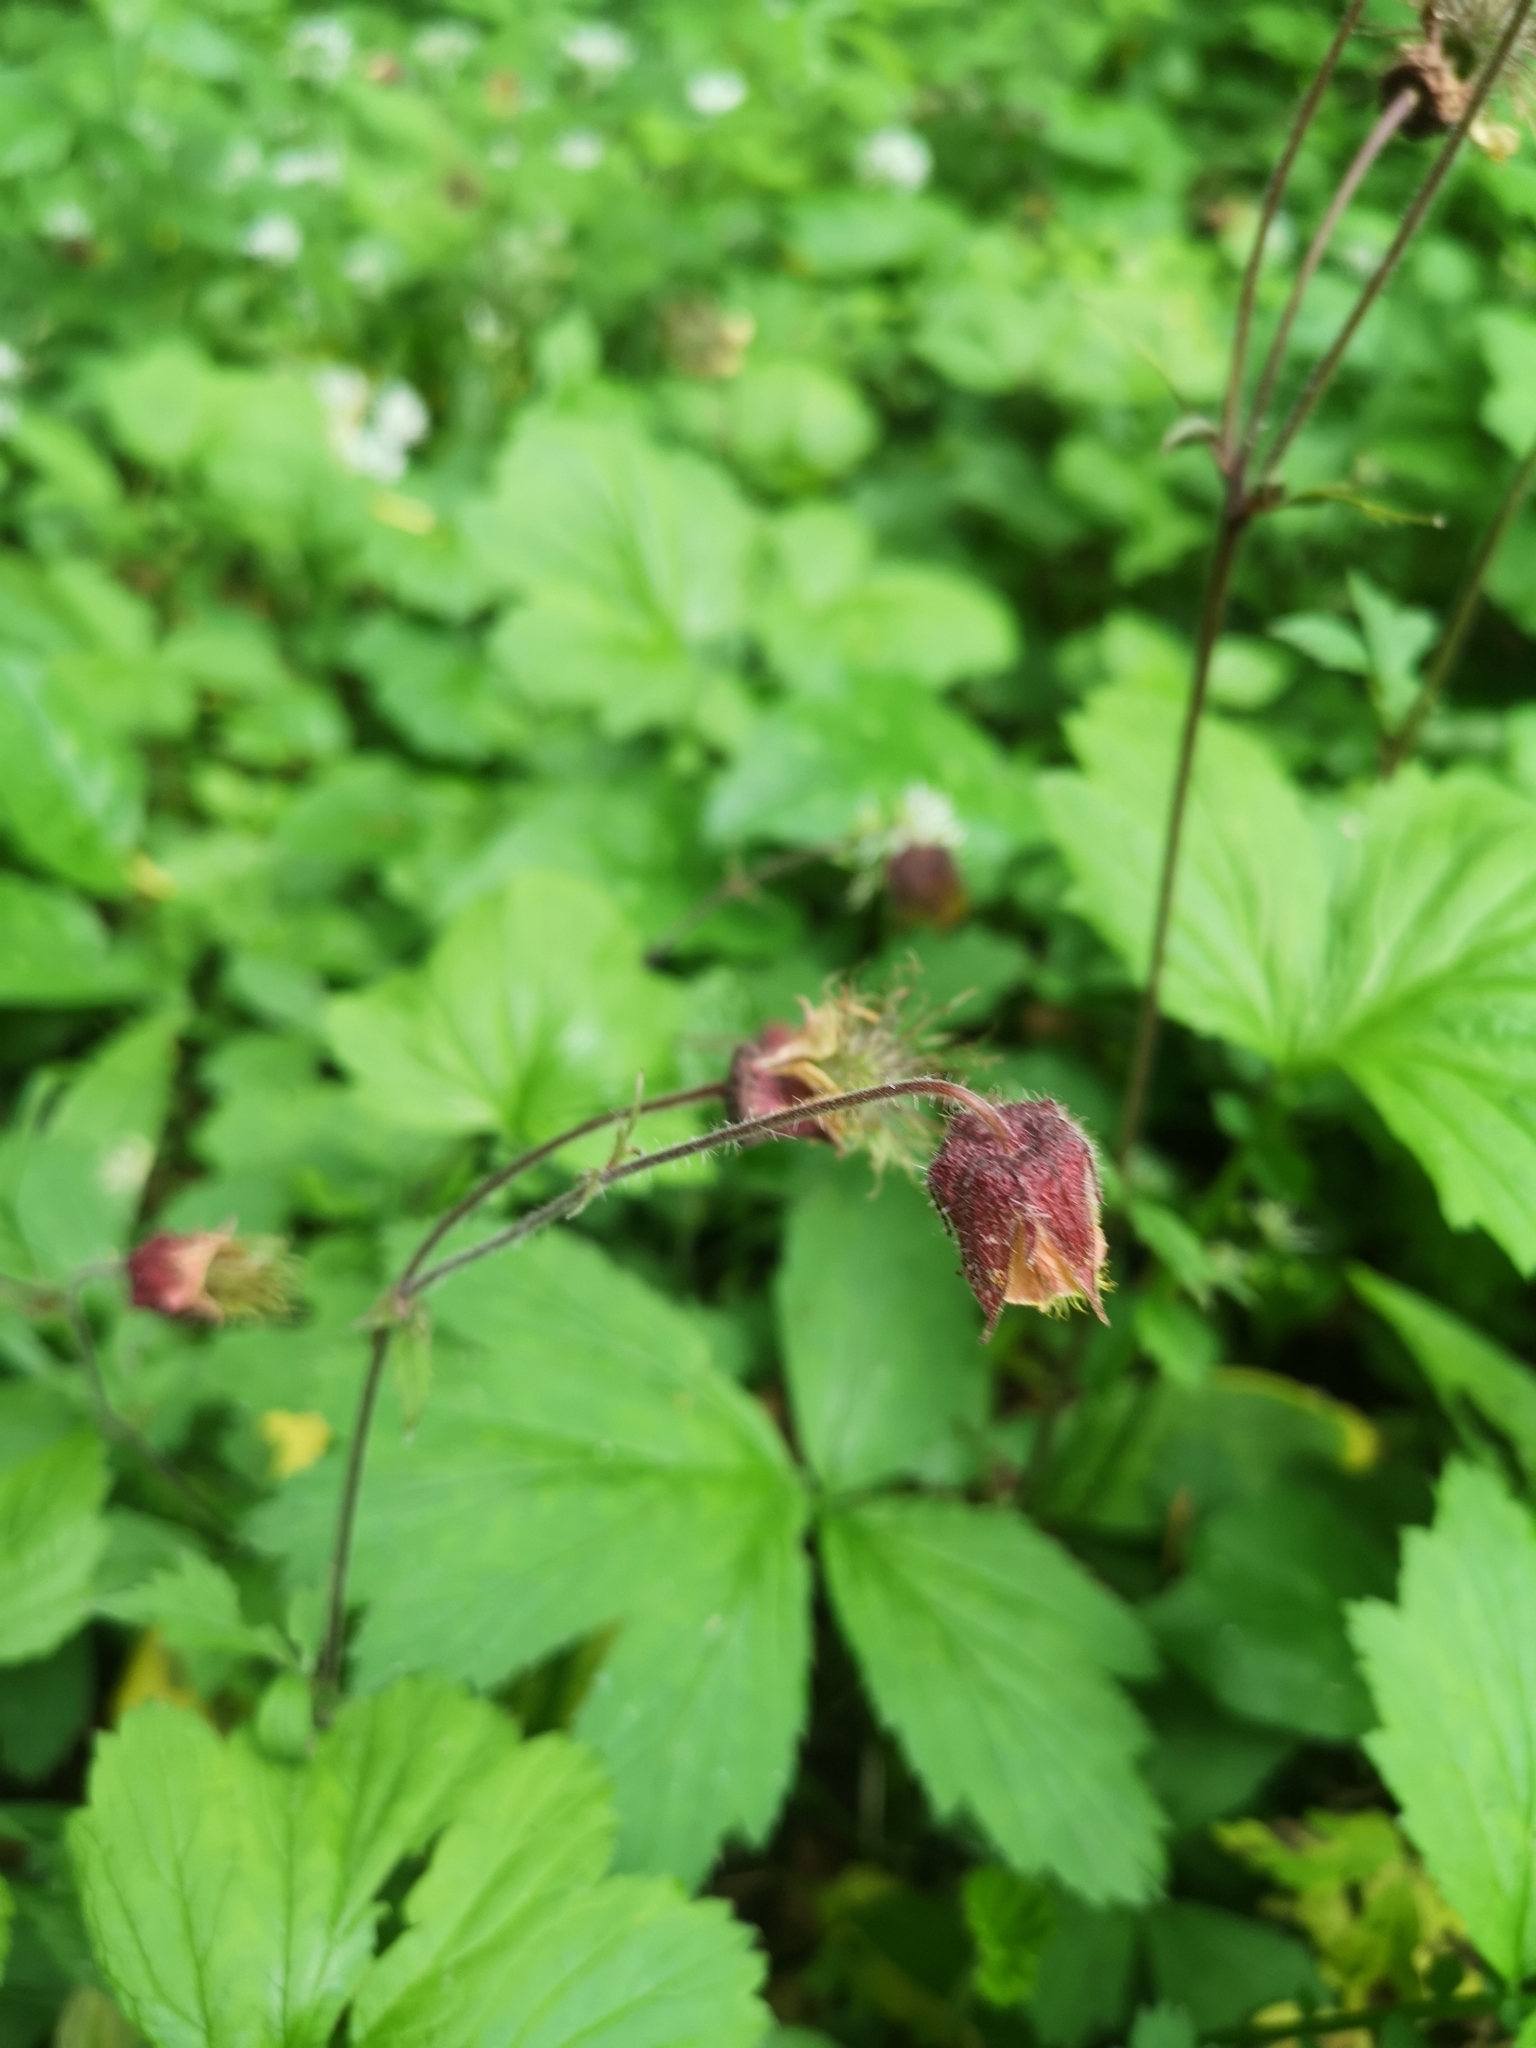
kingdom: Plantae
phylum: Tracheophyta
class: Magnoliopsida
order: Rosales
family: Rosaceae
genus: Geum
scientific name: Geum rivale
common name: Water avens
